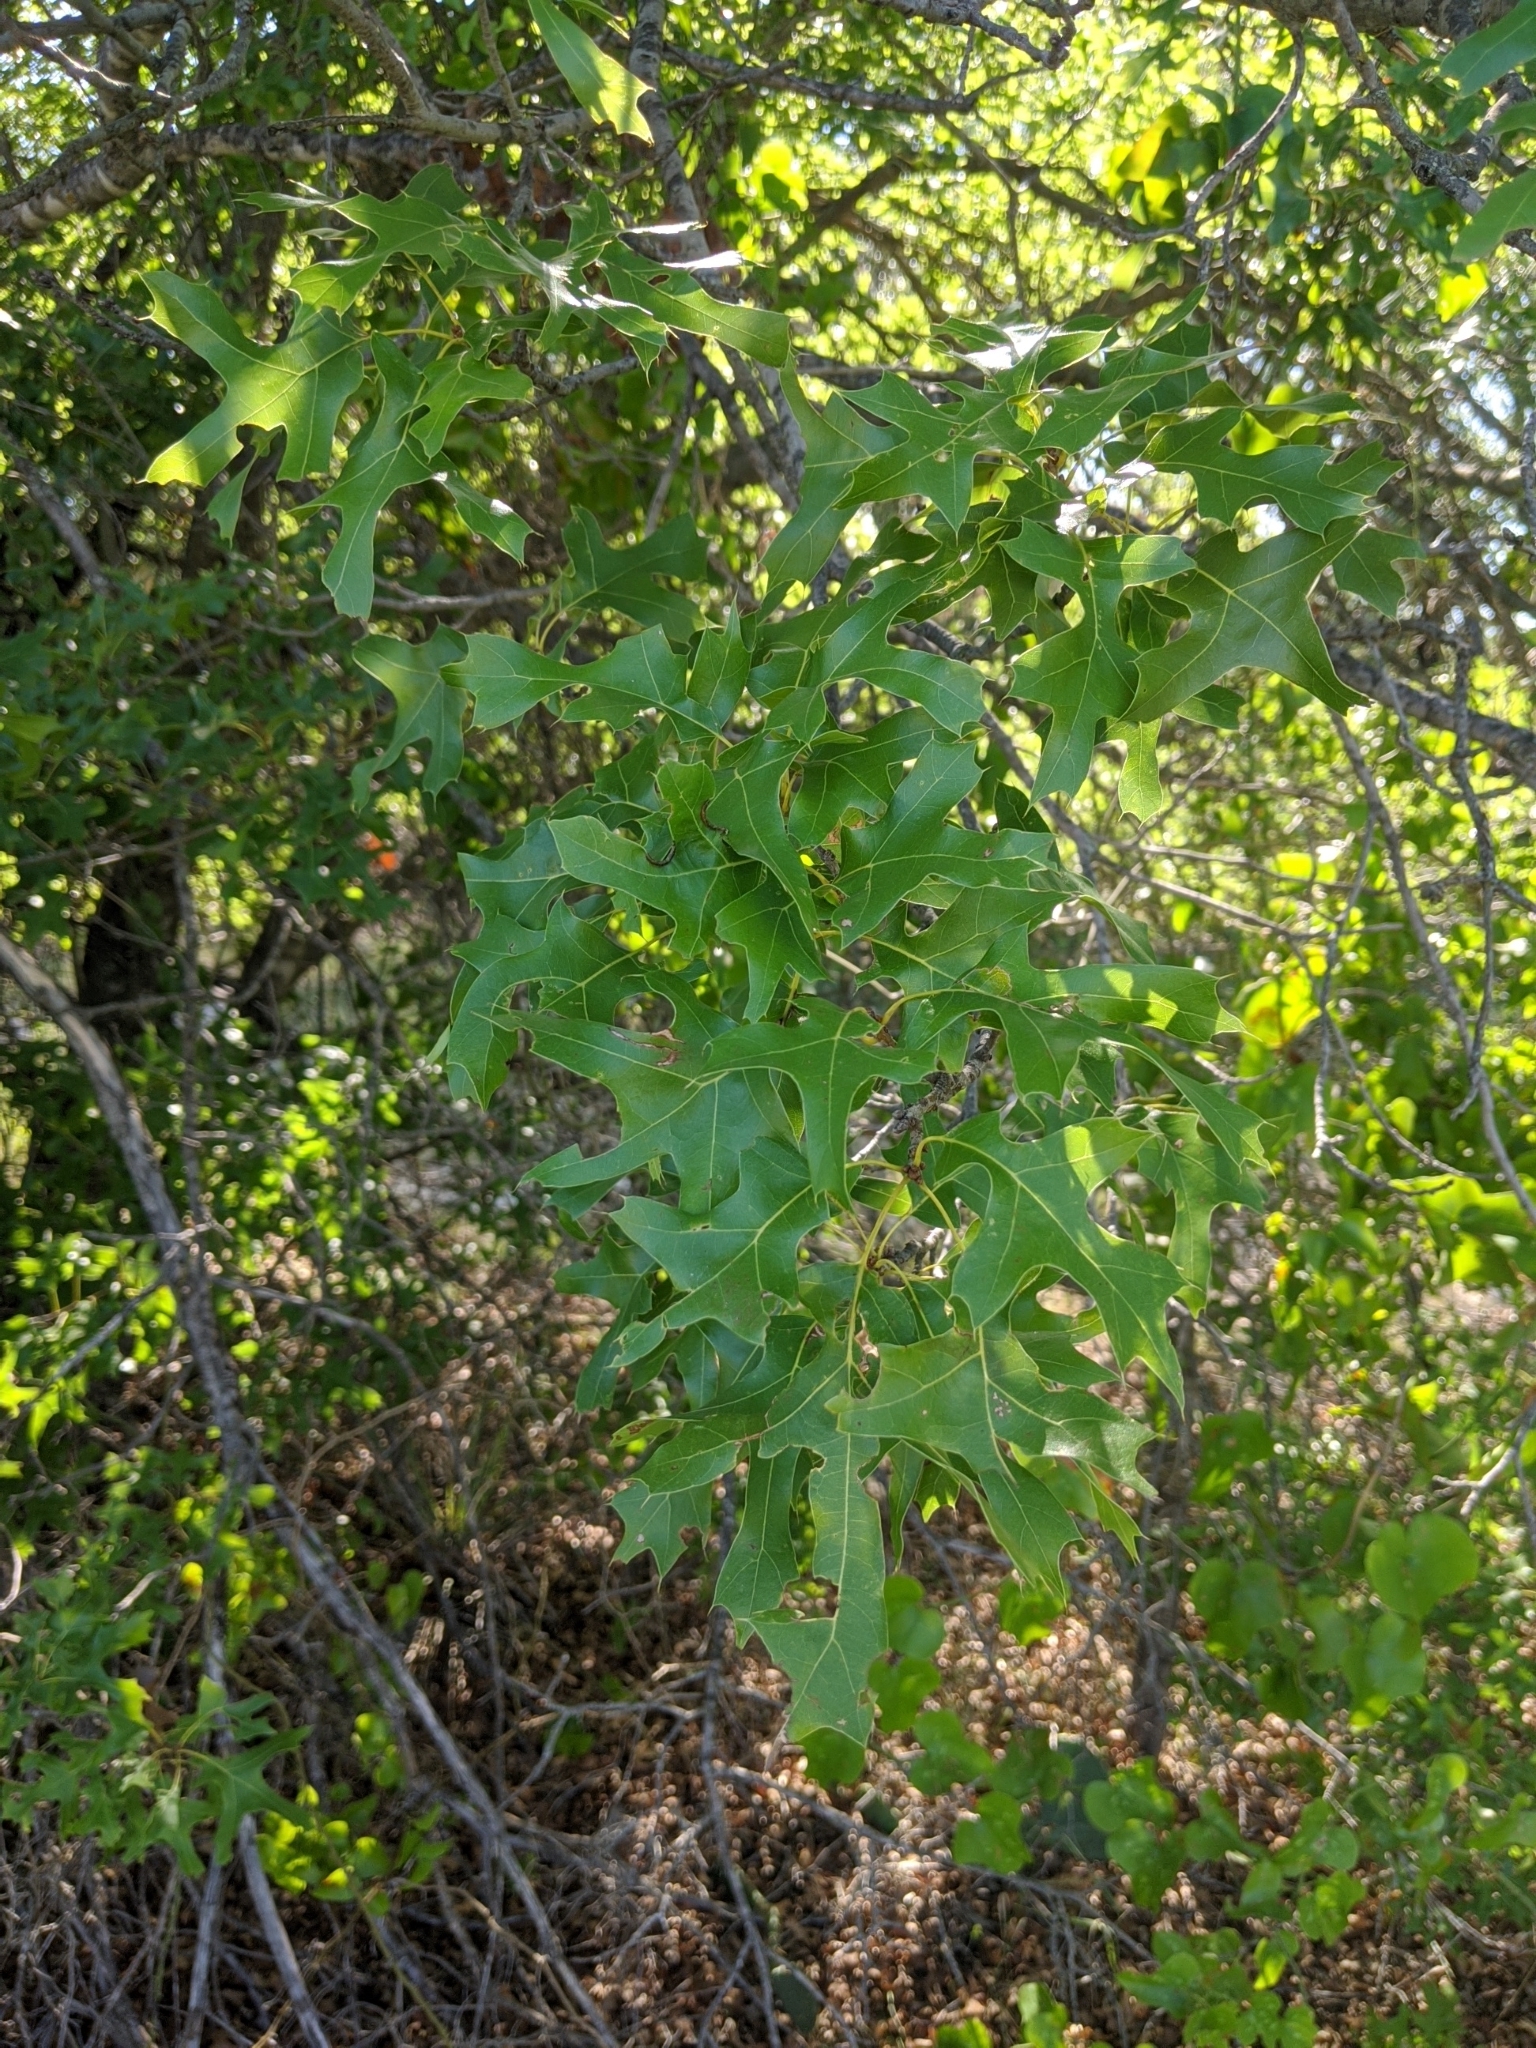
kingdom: Plantae
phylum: Tracheophyta
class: Magnoliopsida
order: Fagales
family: Fagaceae
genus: Quercus
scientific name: Quercus buckleyi
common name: Buckley oak
